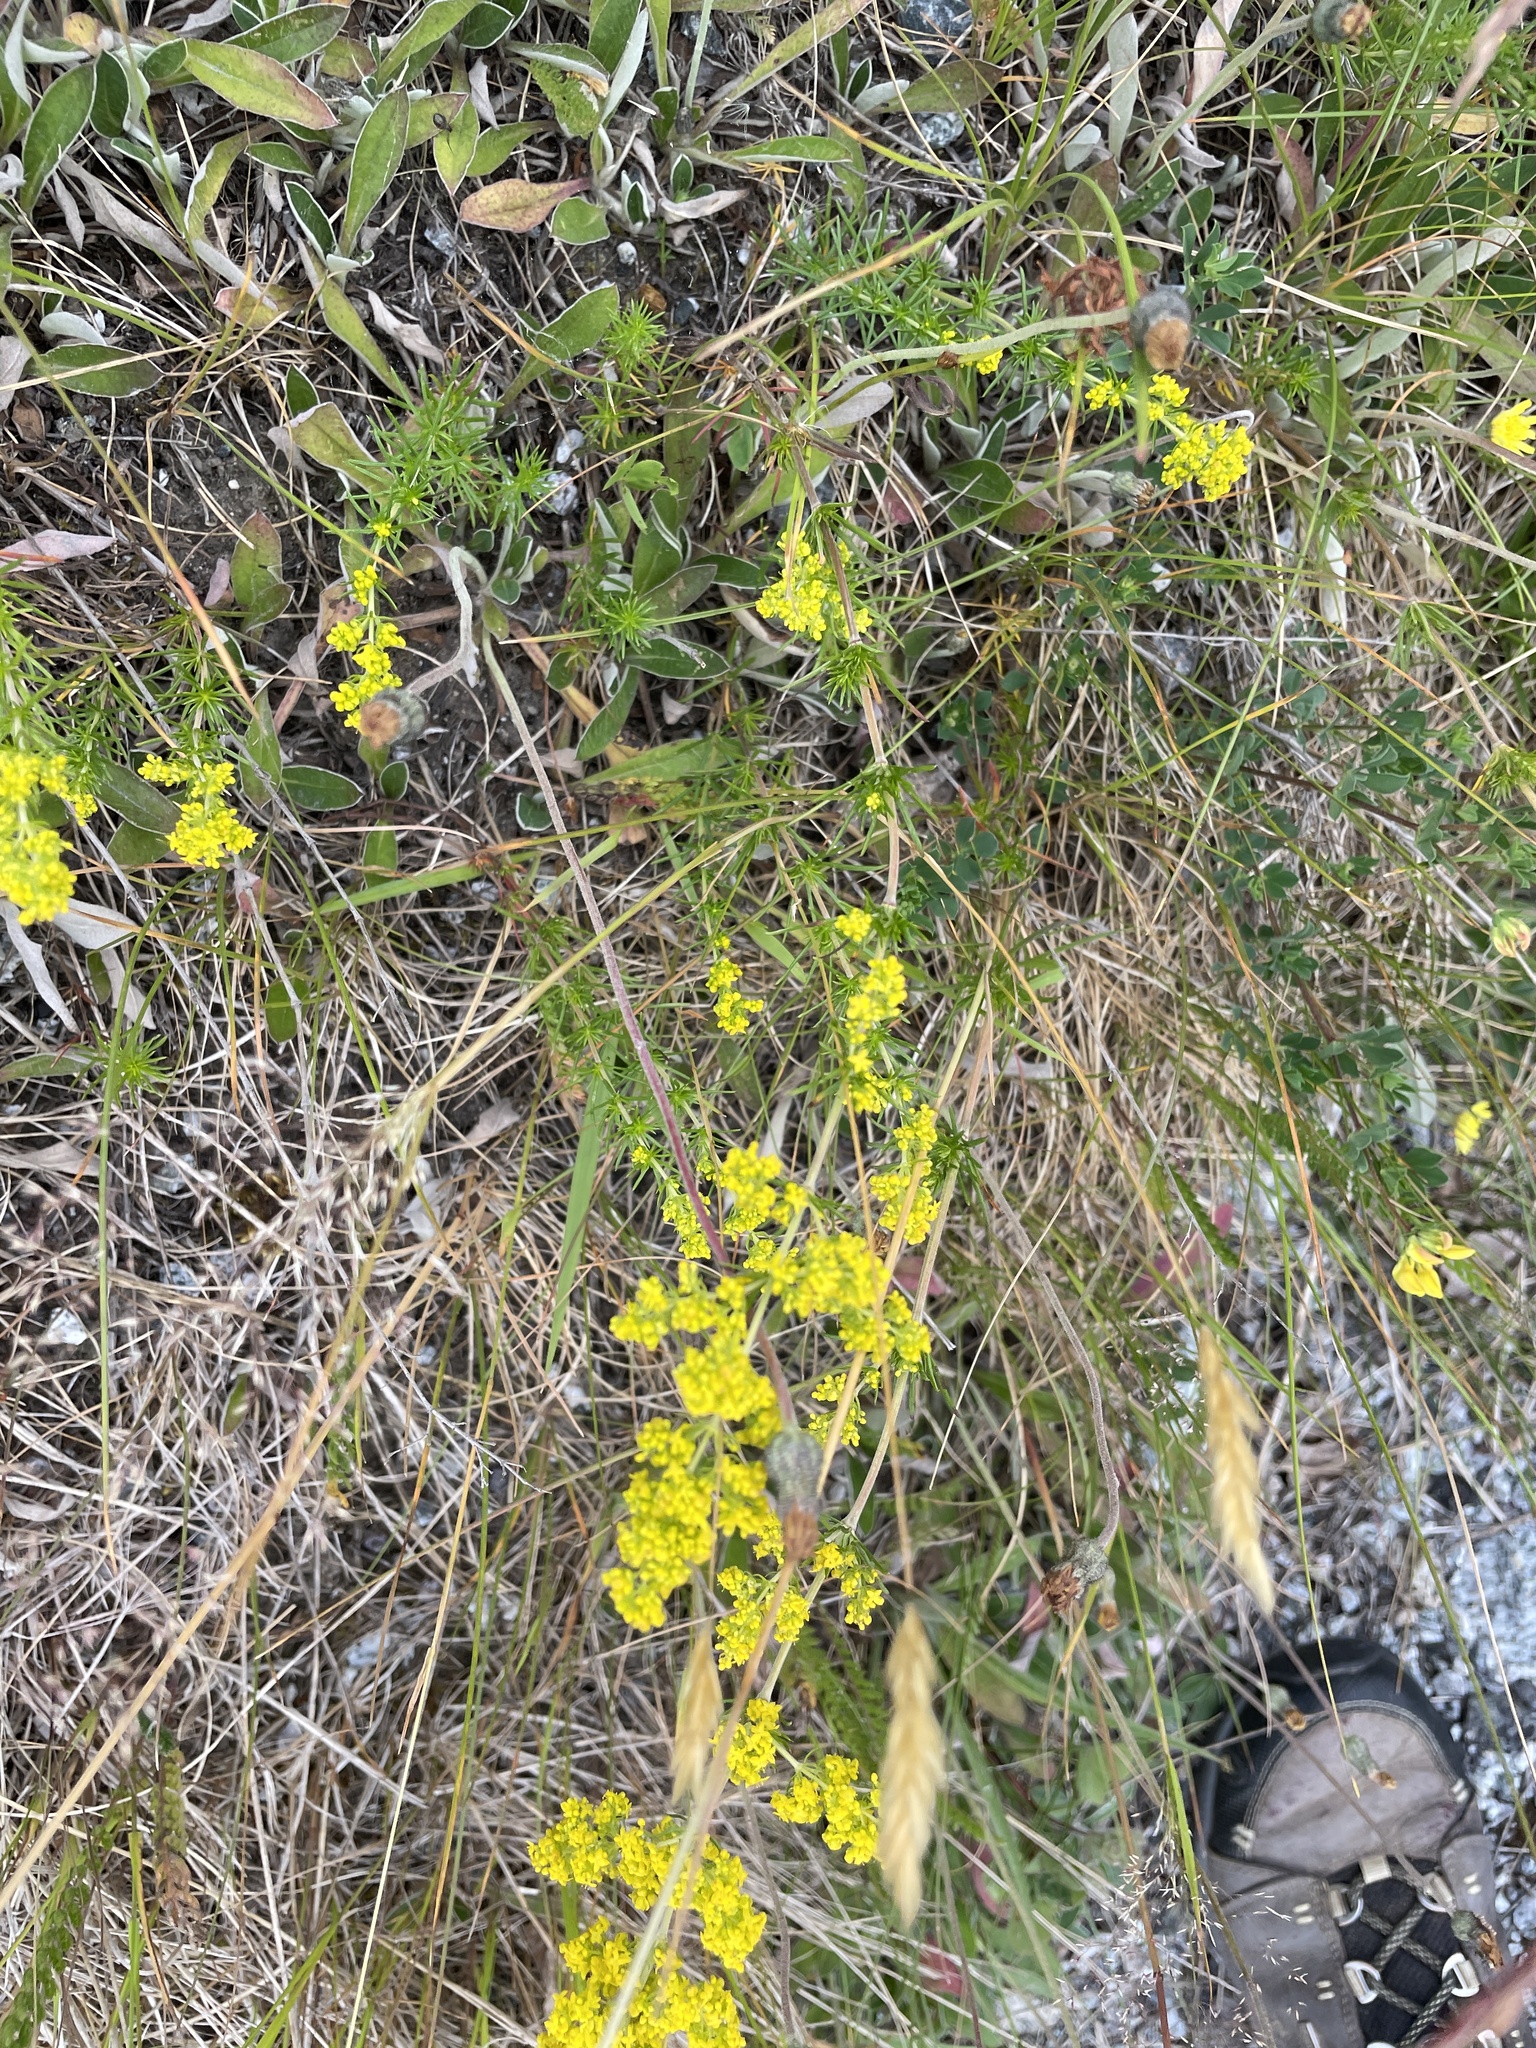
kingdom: Plantae
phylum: Tracheophyta
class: Magnoliopsida
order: Gentianales
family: Rubiaceae
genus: Galium
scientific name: Galium verum
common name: Lady's bedstraw
